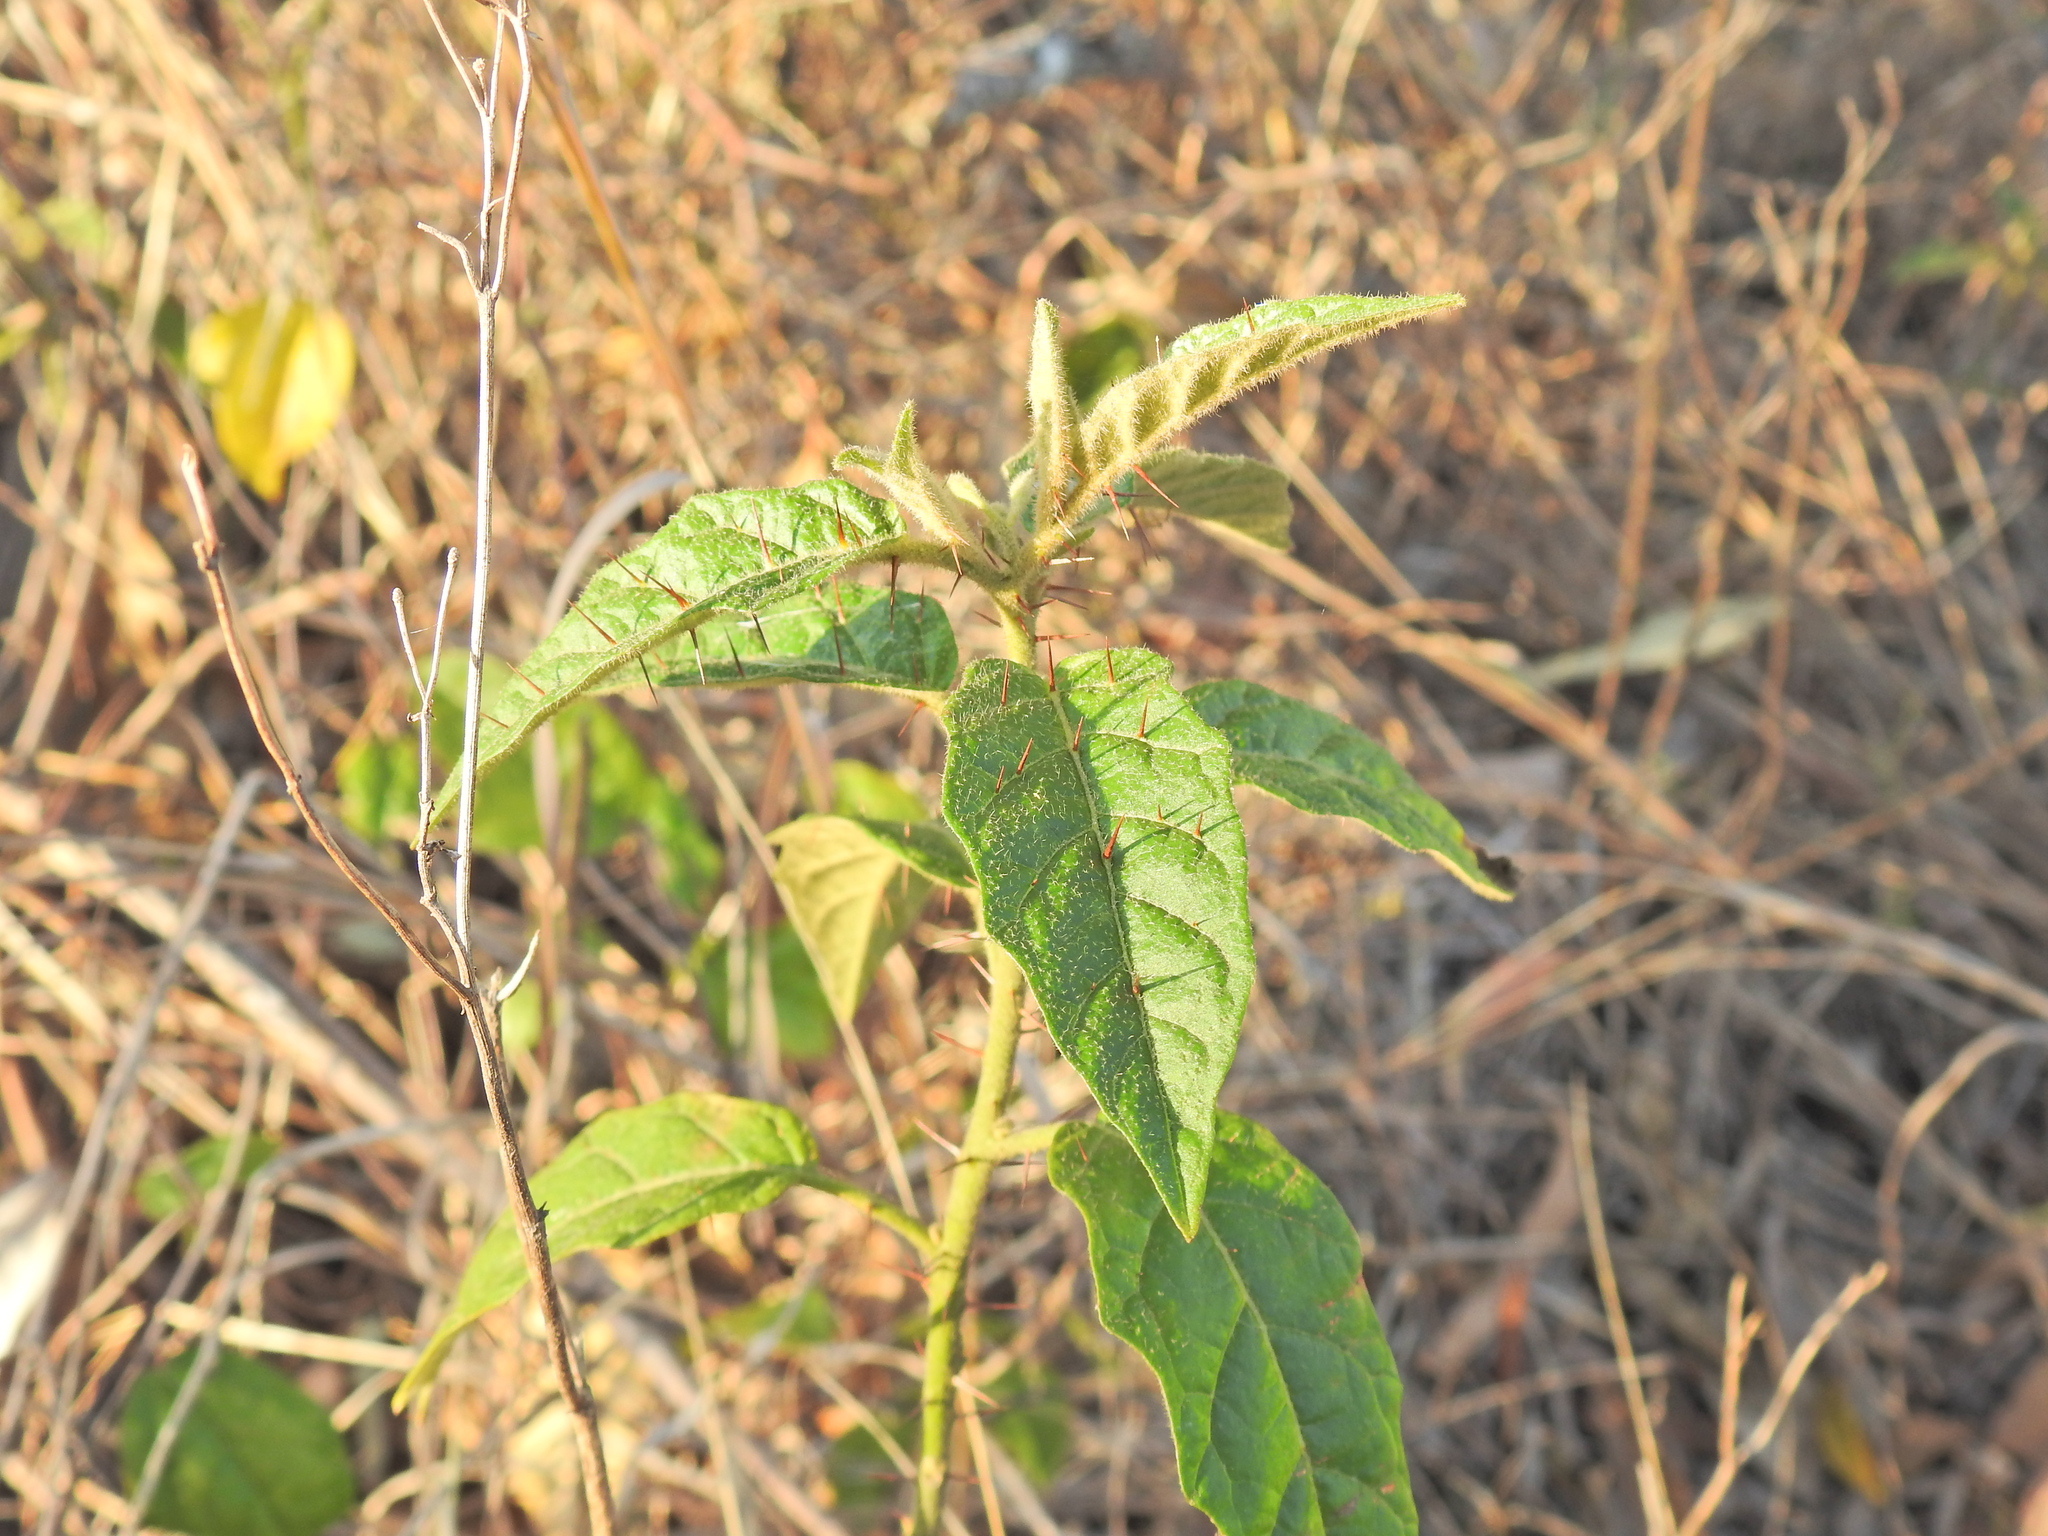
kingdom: Plantae
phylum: Tracheophyta
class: Magnoliopsida
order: Solanales
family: Solanaceae
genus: Solanum
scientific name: Solanum stelligerum
